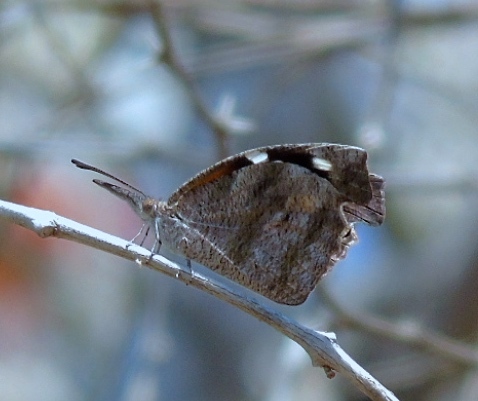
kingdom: Animalia
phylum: Arthropoda
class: Insecta
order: Lepidoptera
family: Nymphalidae
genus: Libytheana
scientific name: Libytheana carinenta
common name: American snout
